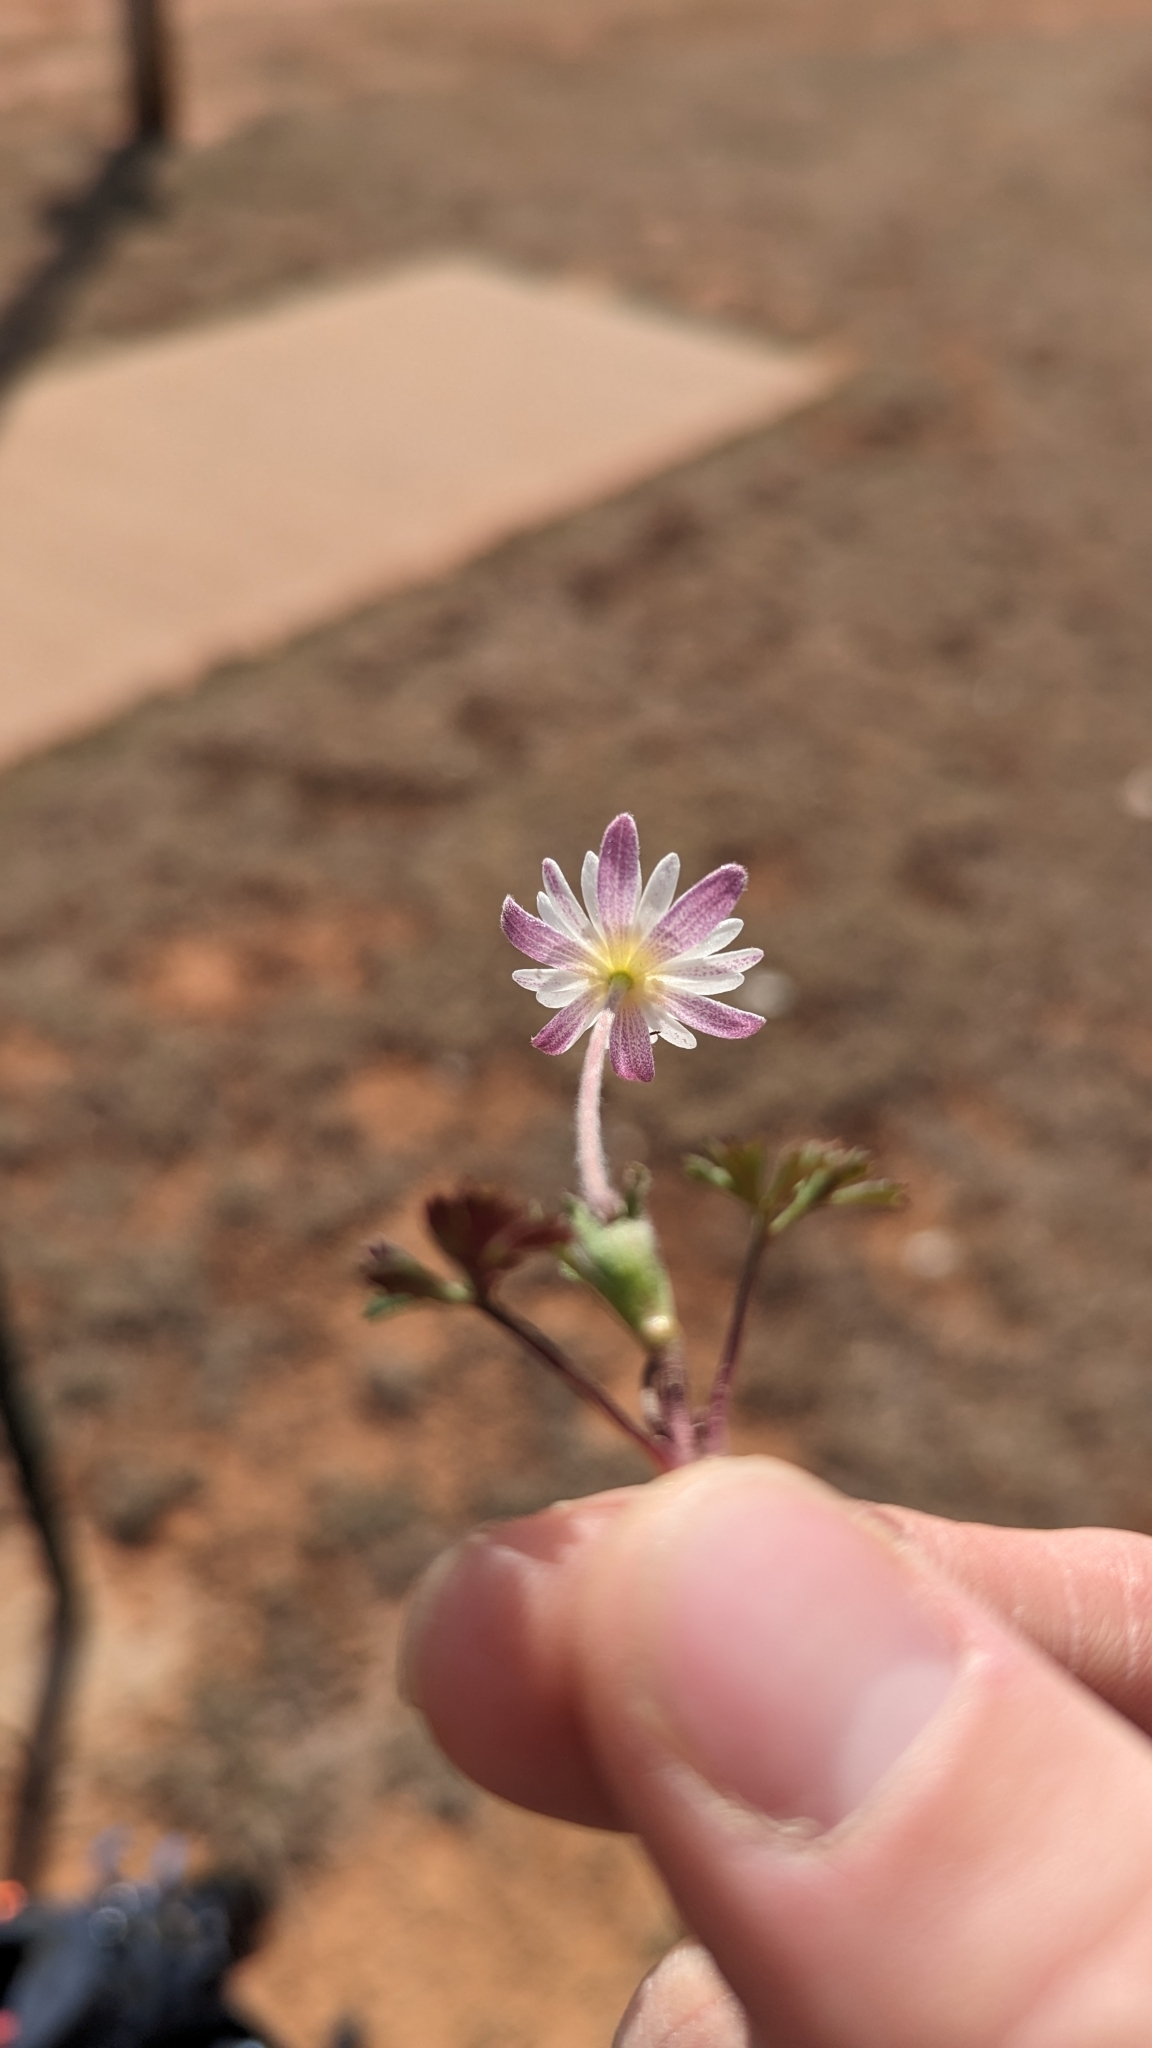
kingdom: Plantae
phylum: Tracheophyta
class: Magnoliopsida
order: Ranunculales
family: Ranunculaceae
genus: Anemone
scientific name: Anemone caroliniana
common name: Carolina anemone
